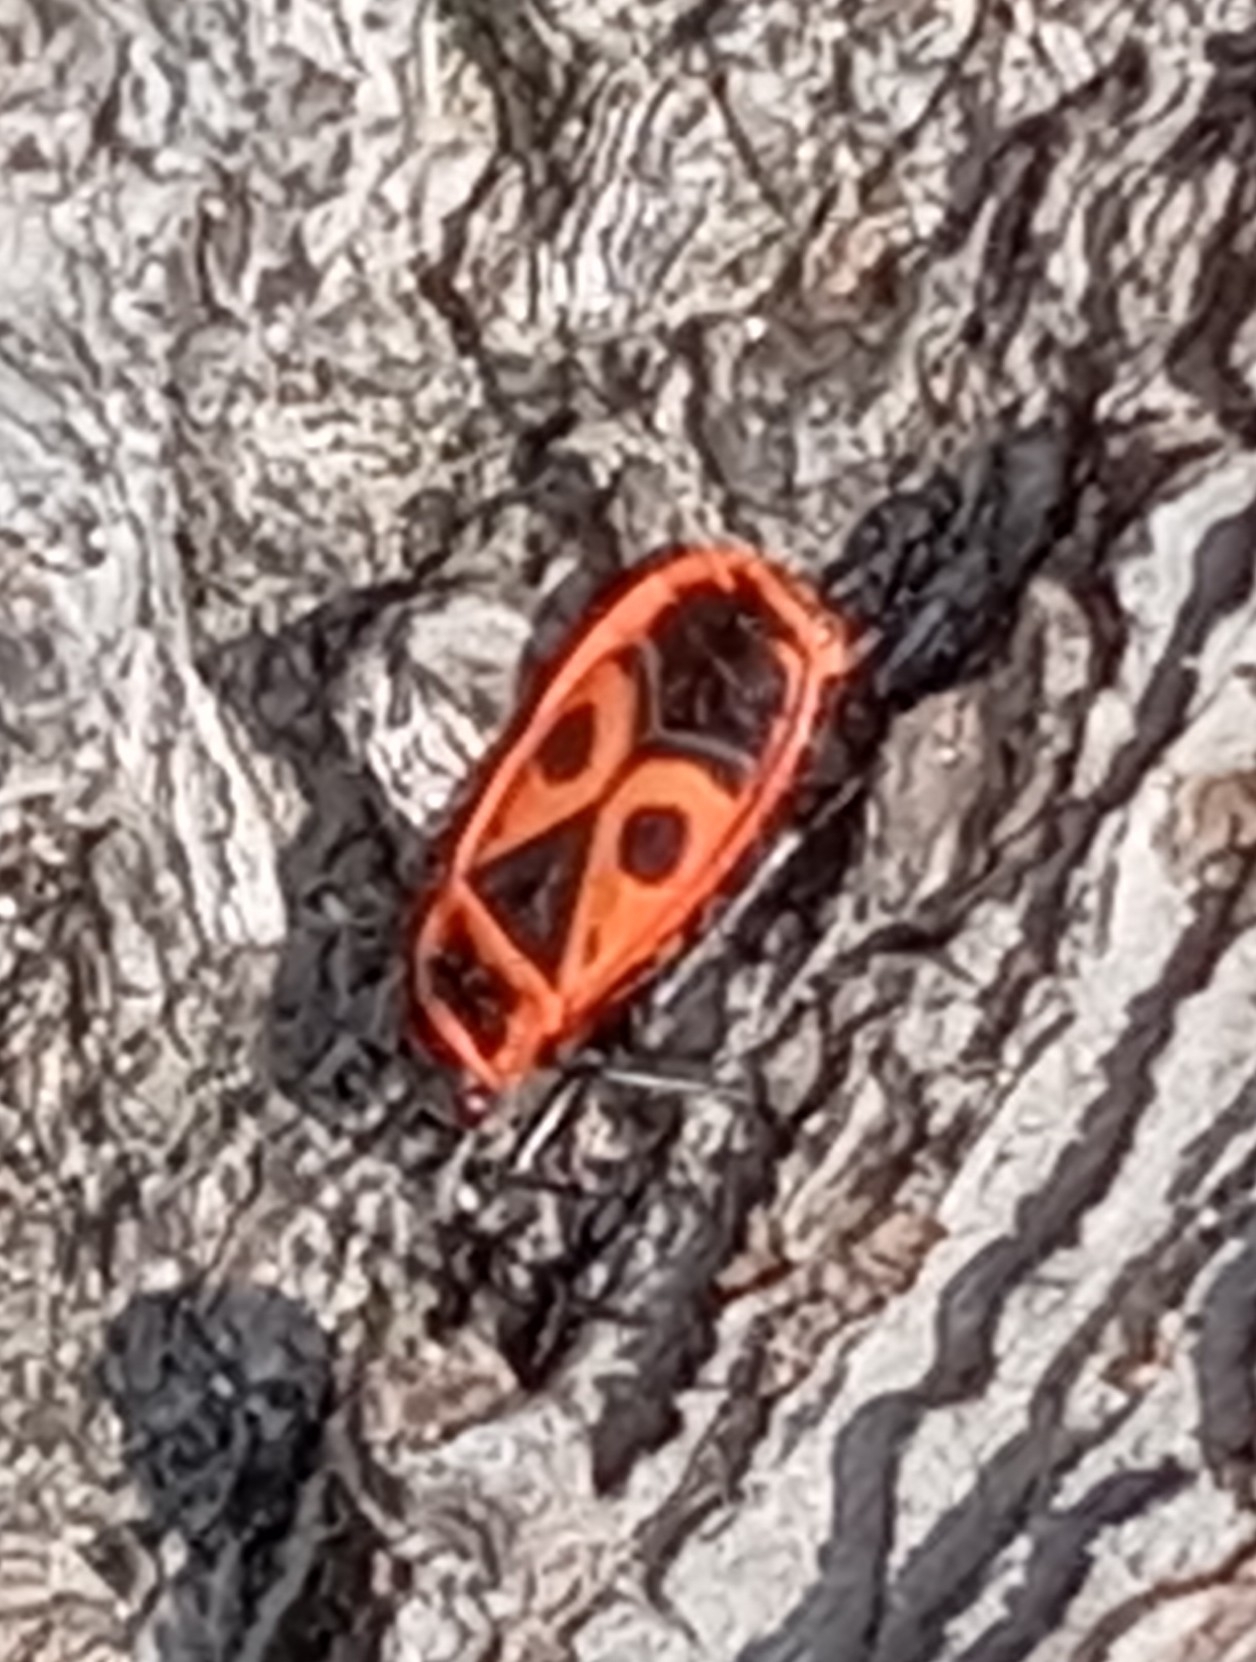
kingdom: Animalia
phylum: Arthropoda
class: Insecta
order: Hemiptera
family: Pyrrhocoridae
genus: Pyrrhocoris
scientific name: Pyrrhocoris apterus
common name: Firebug
